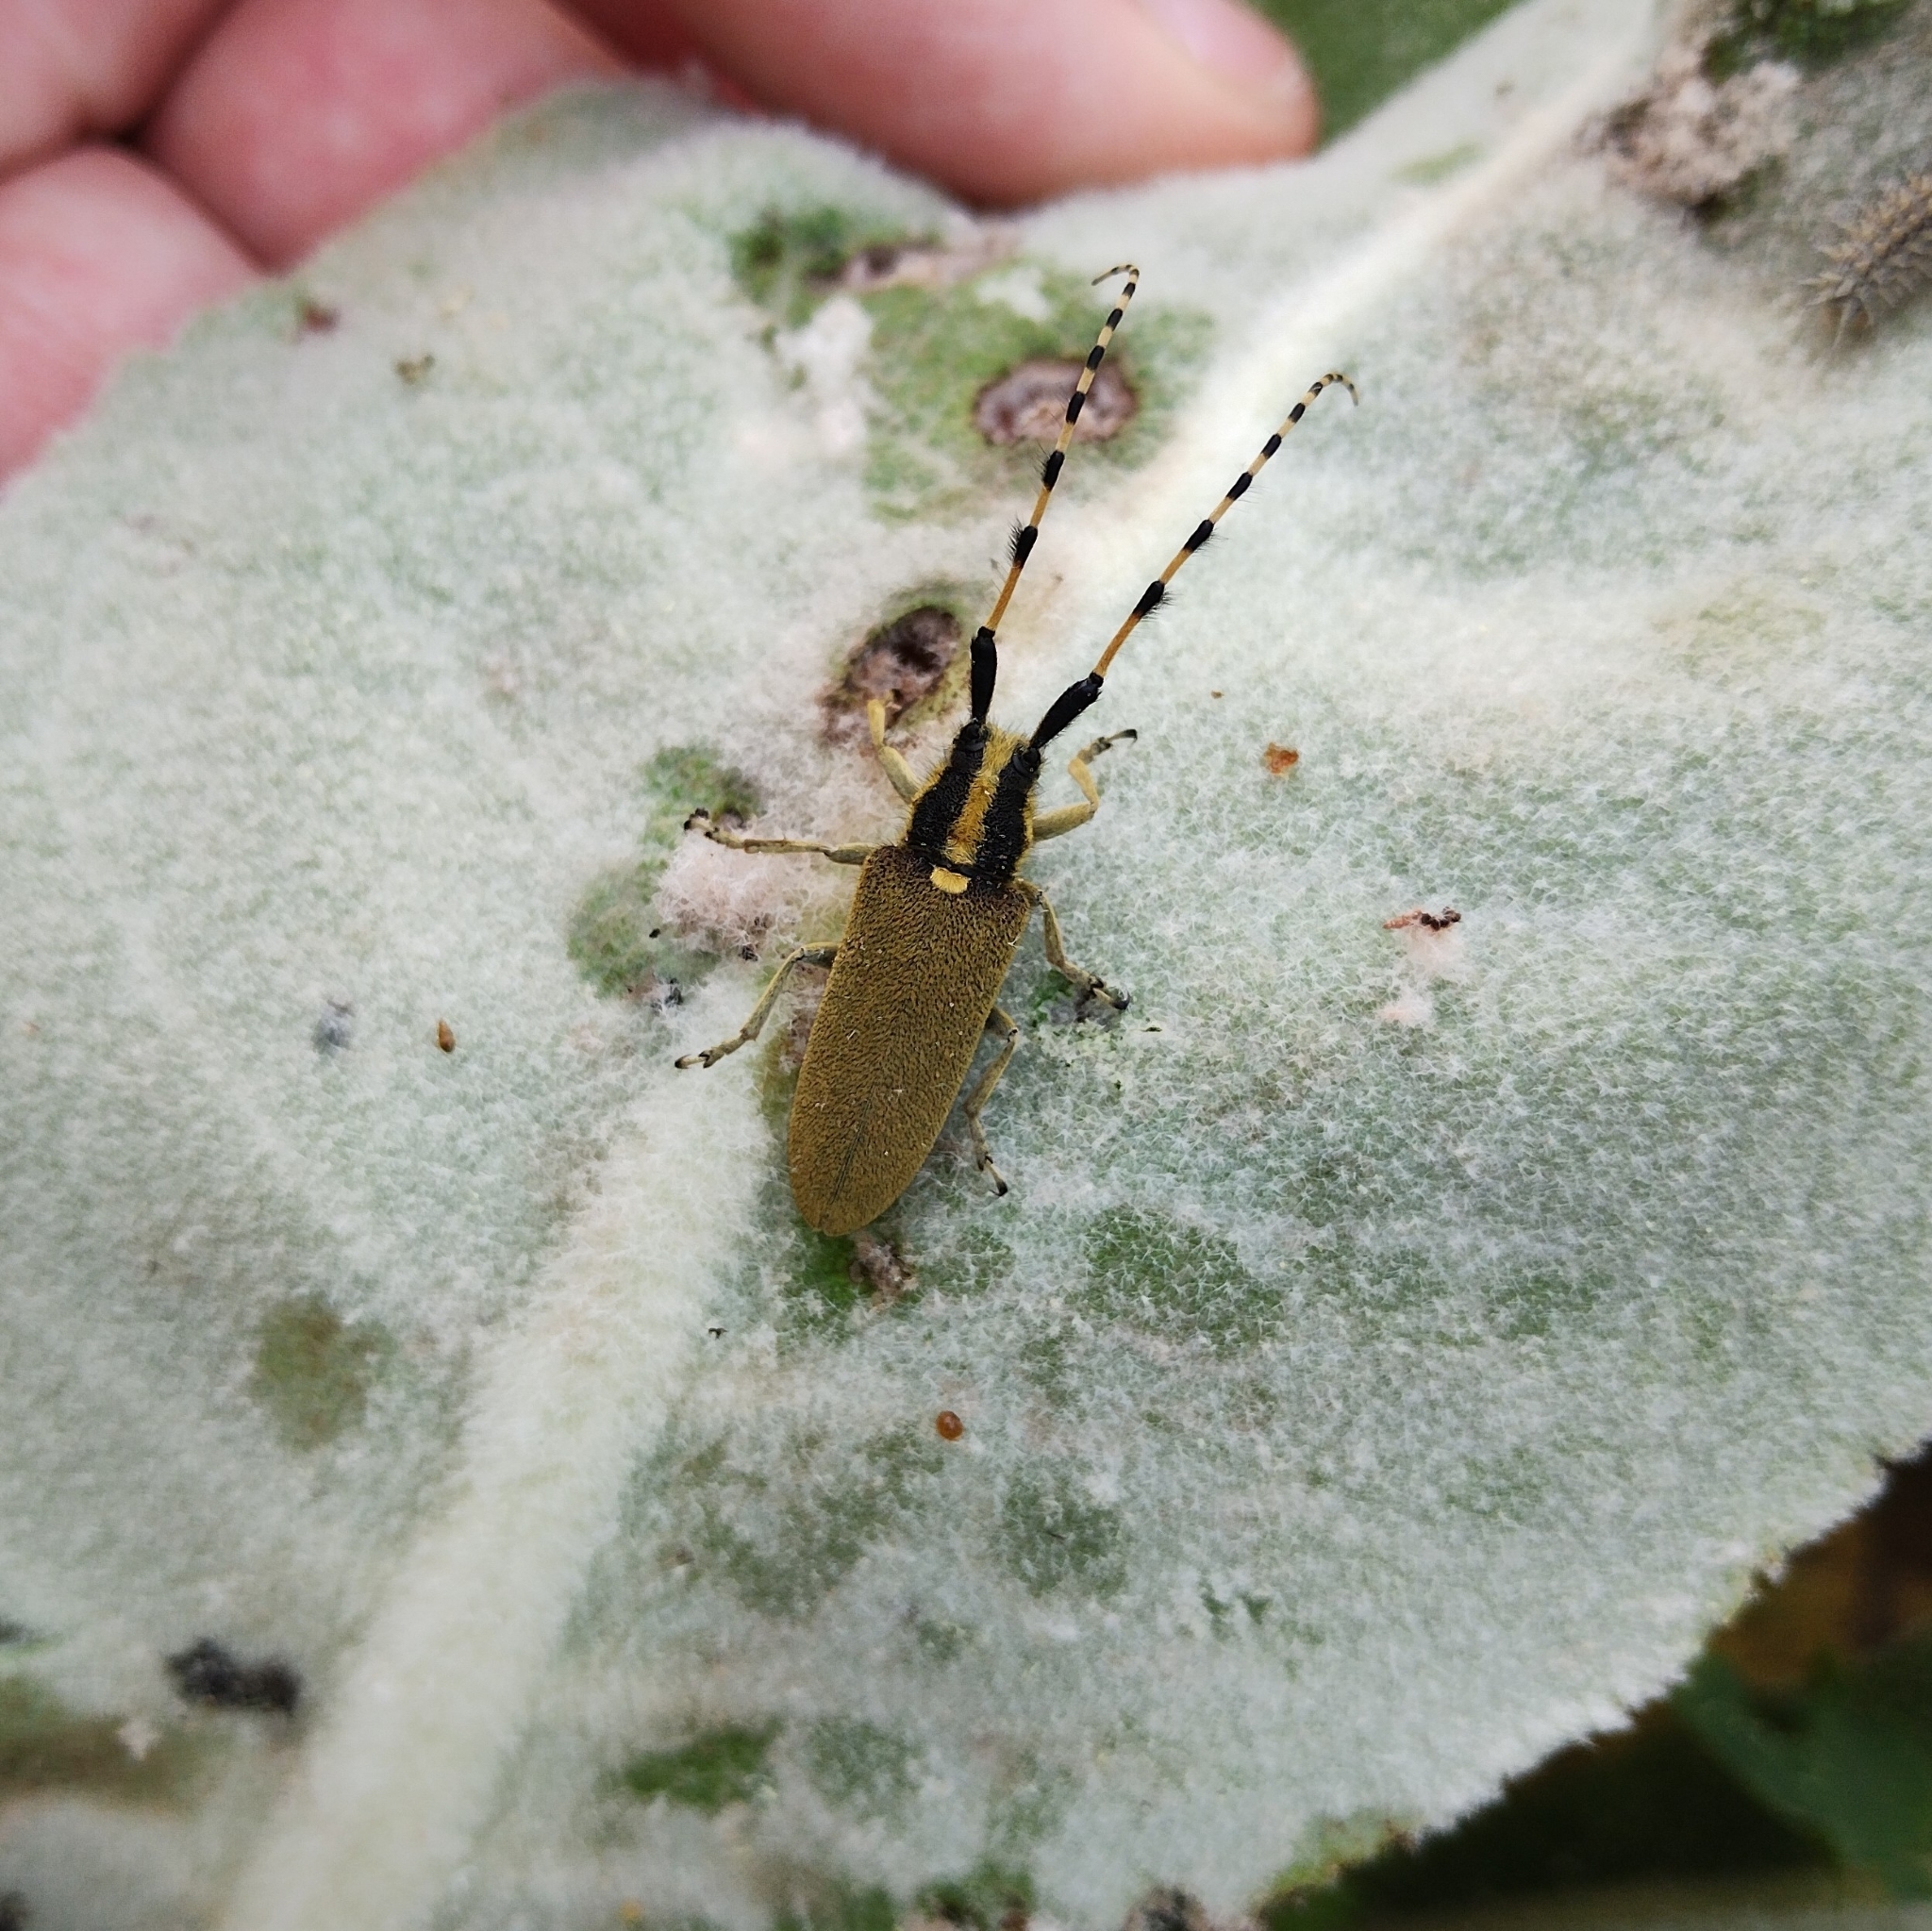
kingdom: Animalia
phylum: Arthropoda
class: Insecta
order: Coleoptera
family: Cerambycidae
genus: Agapanthia
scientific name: Agapanthia kirbyi
